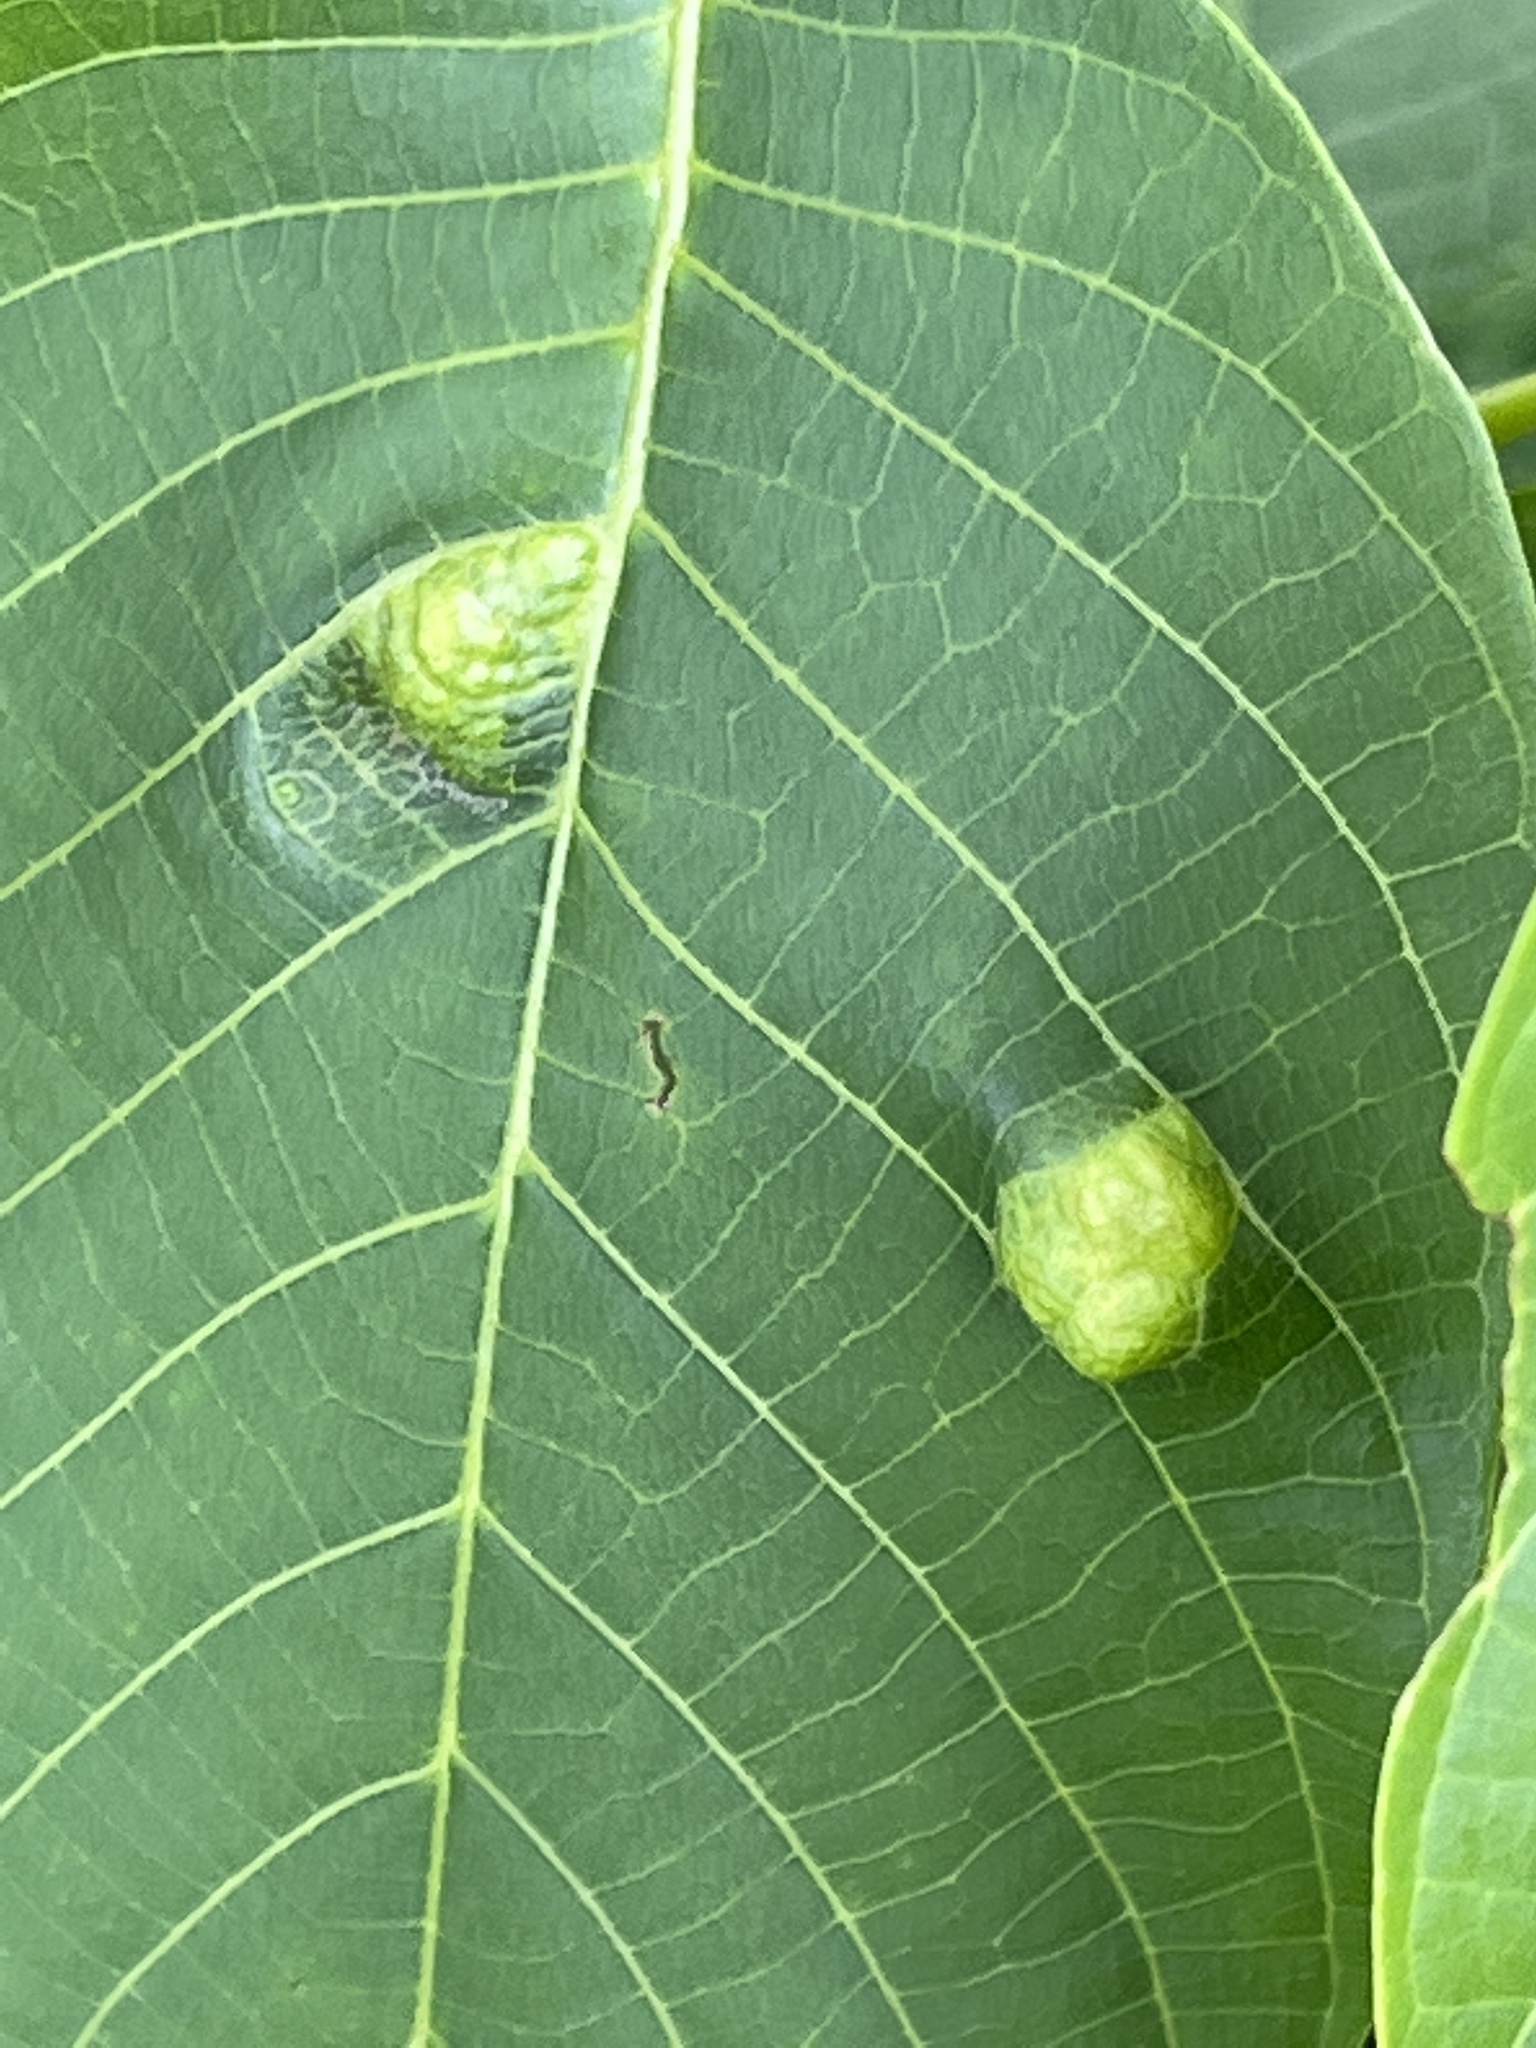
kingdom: Animalia
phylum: Arthropoda
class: Arachnida
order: Trombidiformes
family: Eriophyidae
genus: Aceria
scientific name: Aceria erinea
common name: Persian walnut erineum mite
